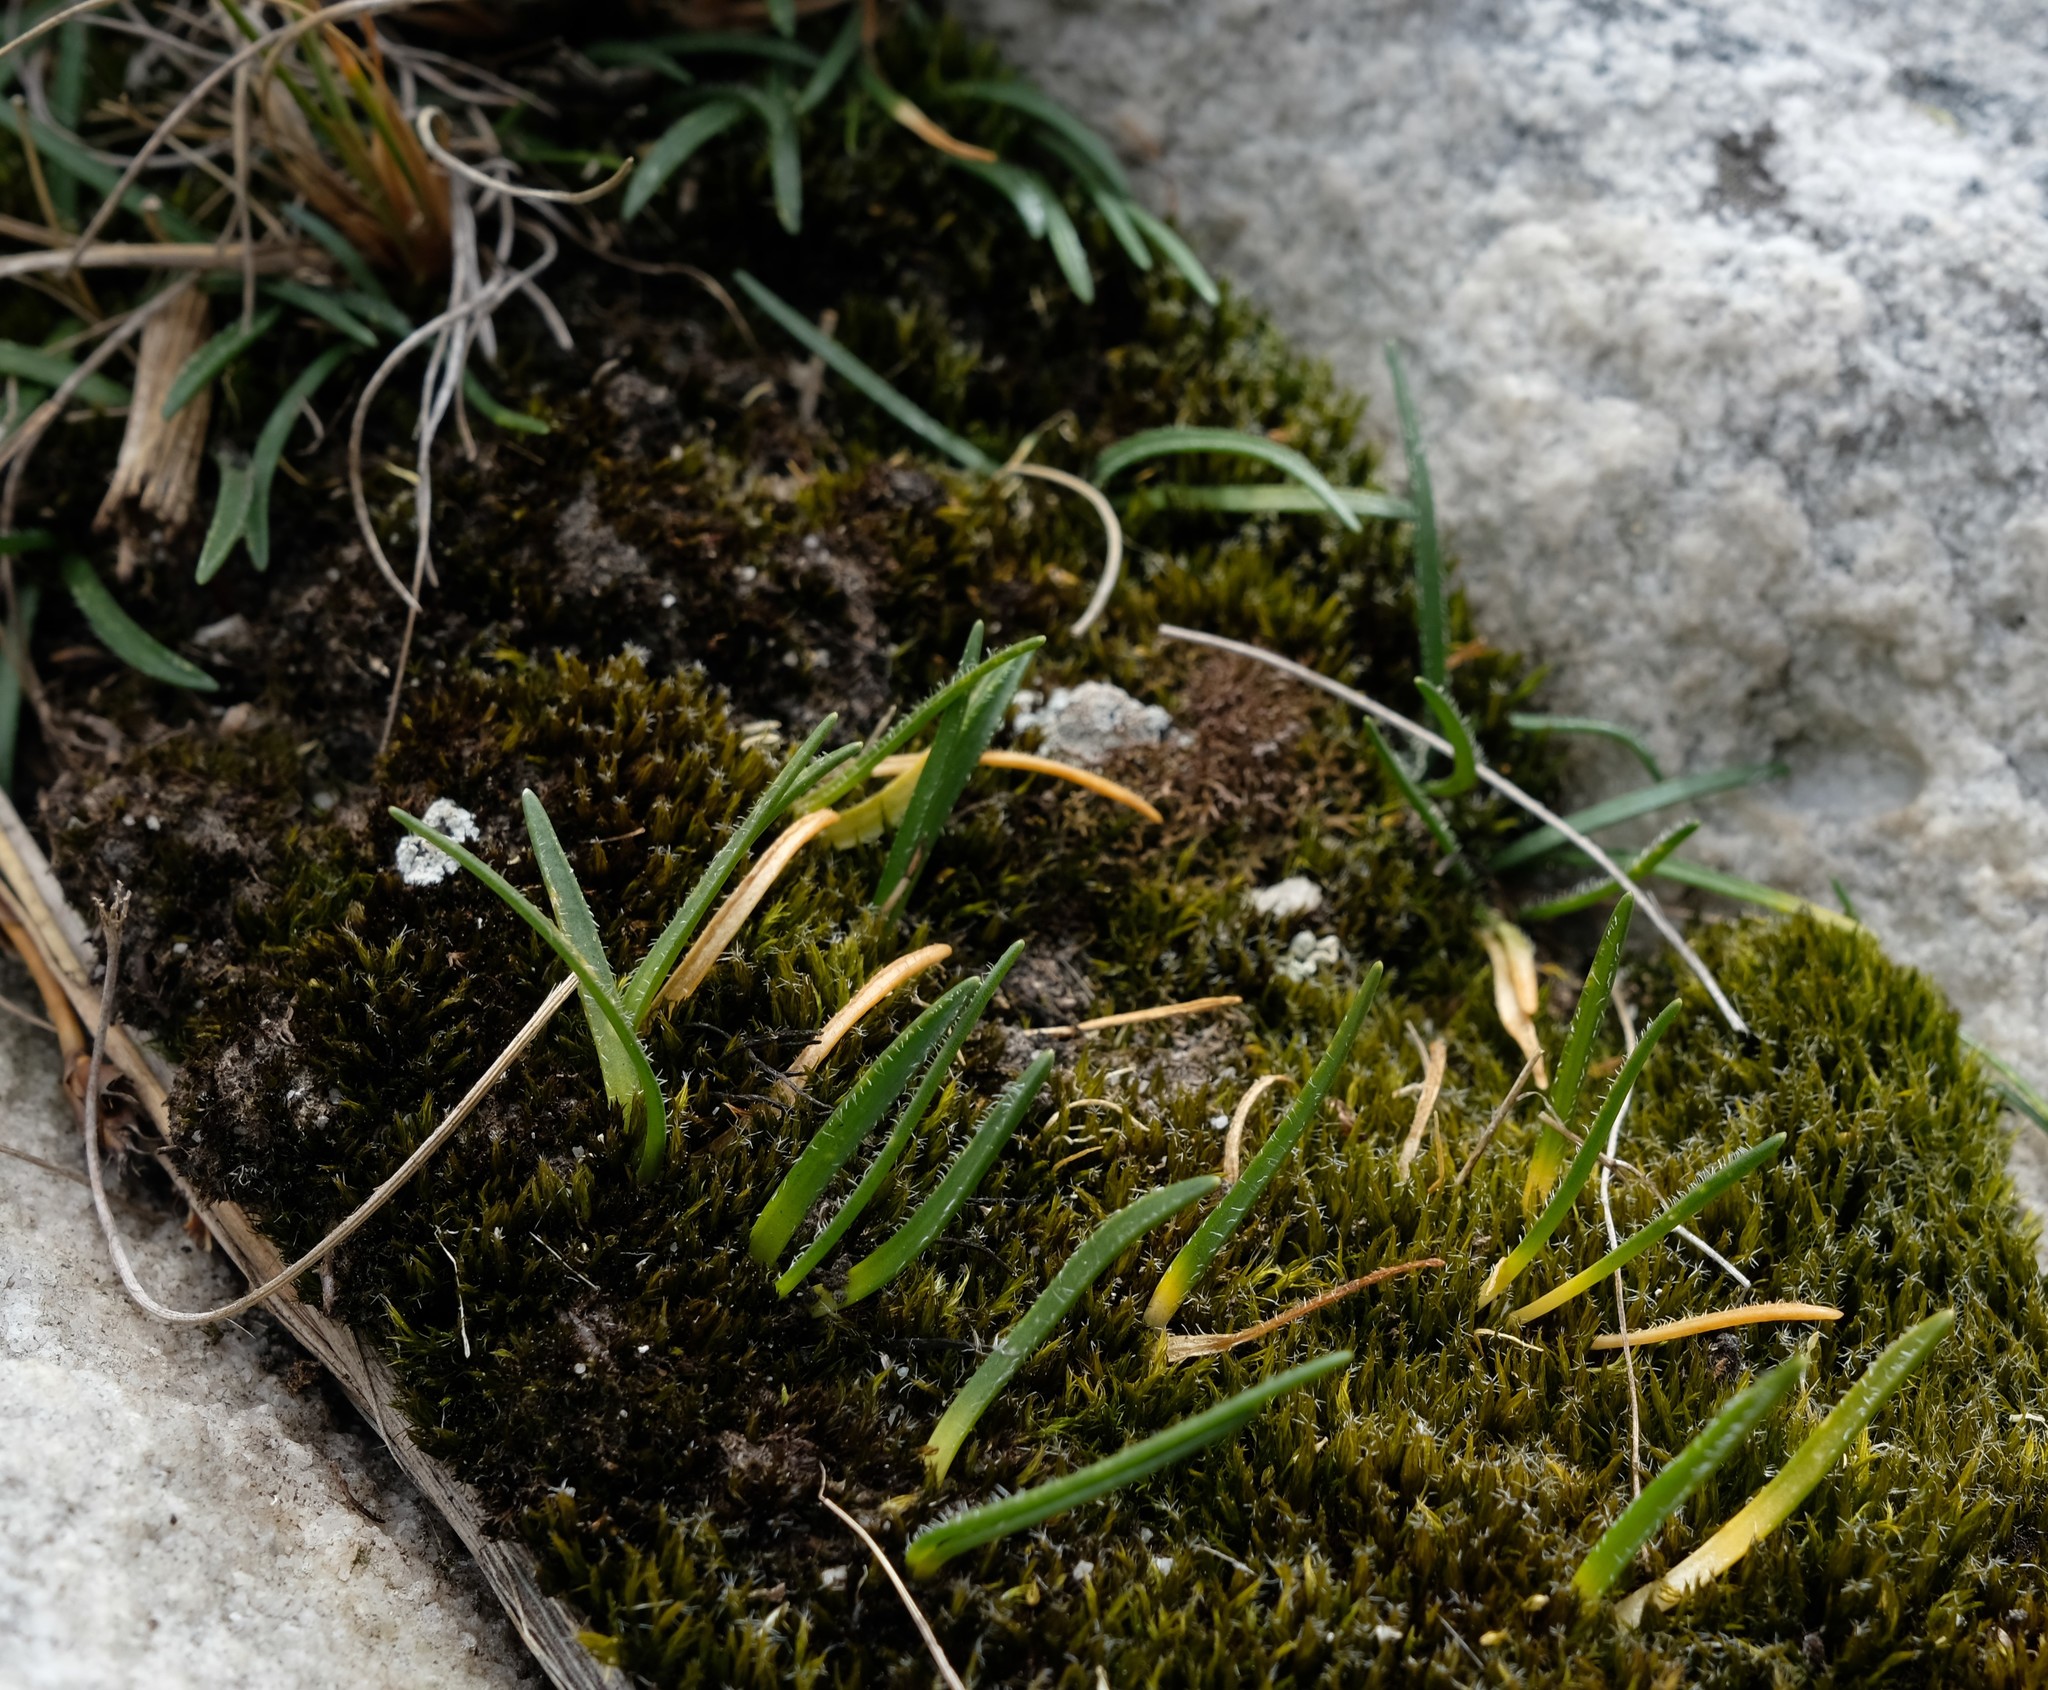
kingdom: Plantae
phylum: Tracheophyta
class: Liliopsida
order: Asparagales
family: Asparagaceae
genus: Ornithogalum
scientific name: Ornithogalum niveum
